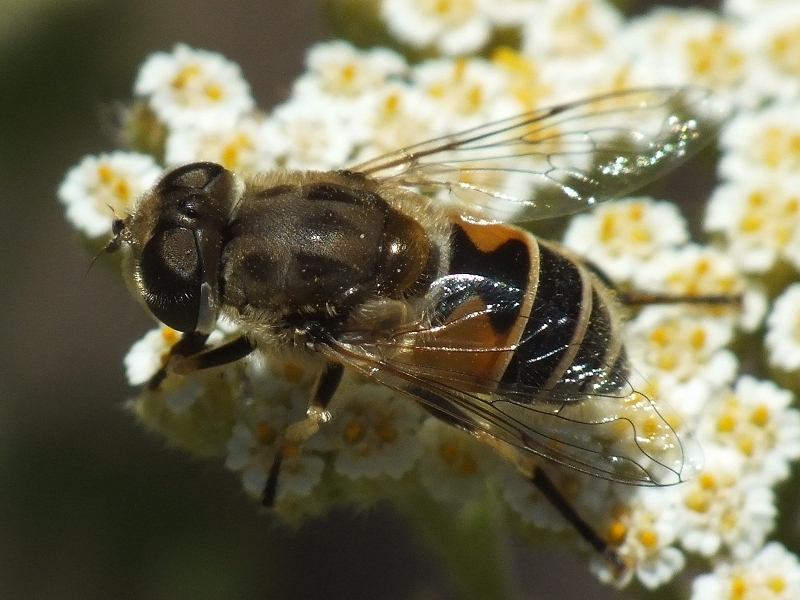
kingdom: Animalia
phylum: Arthropoda
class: Insecta
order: Diptera
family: Syrphidae
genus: Eristalis
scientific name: Eristalis arbustorum
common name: Hover fly
